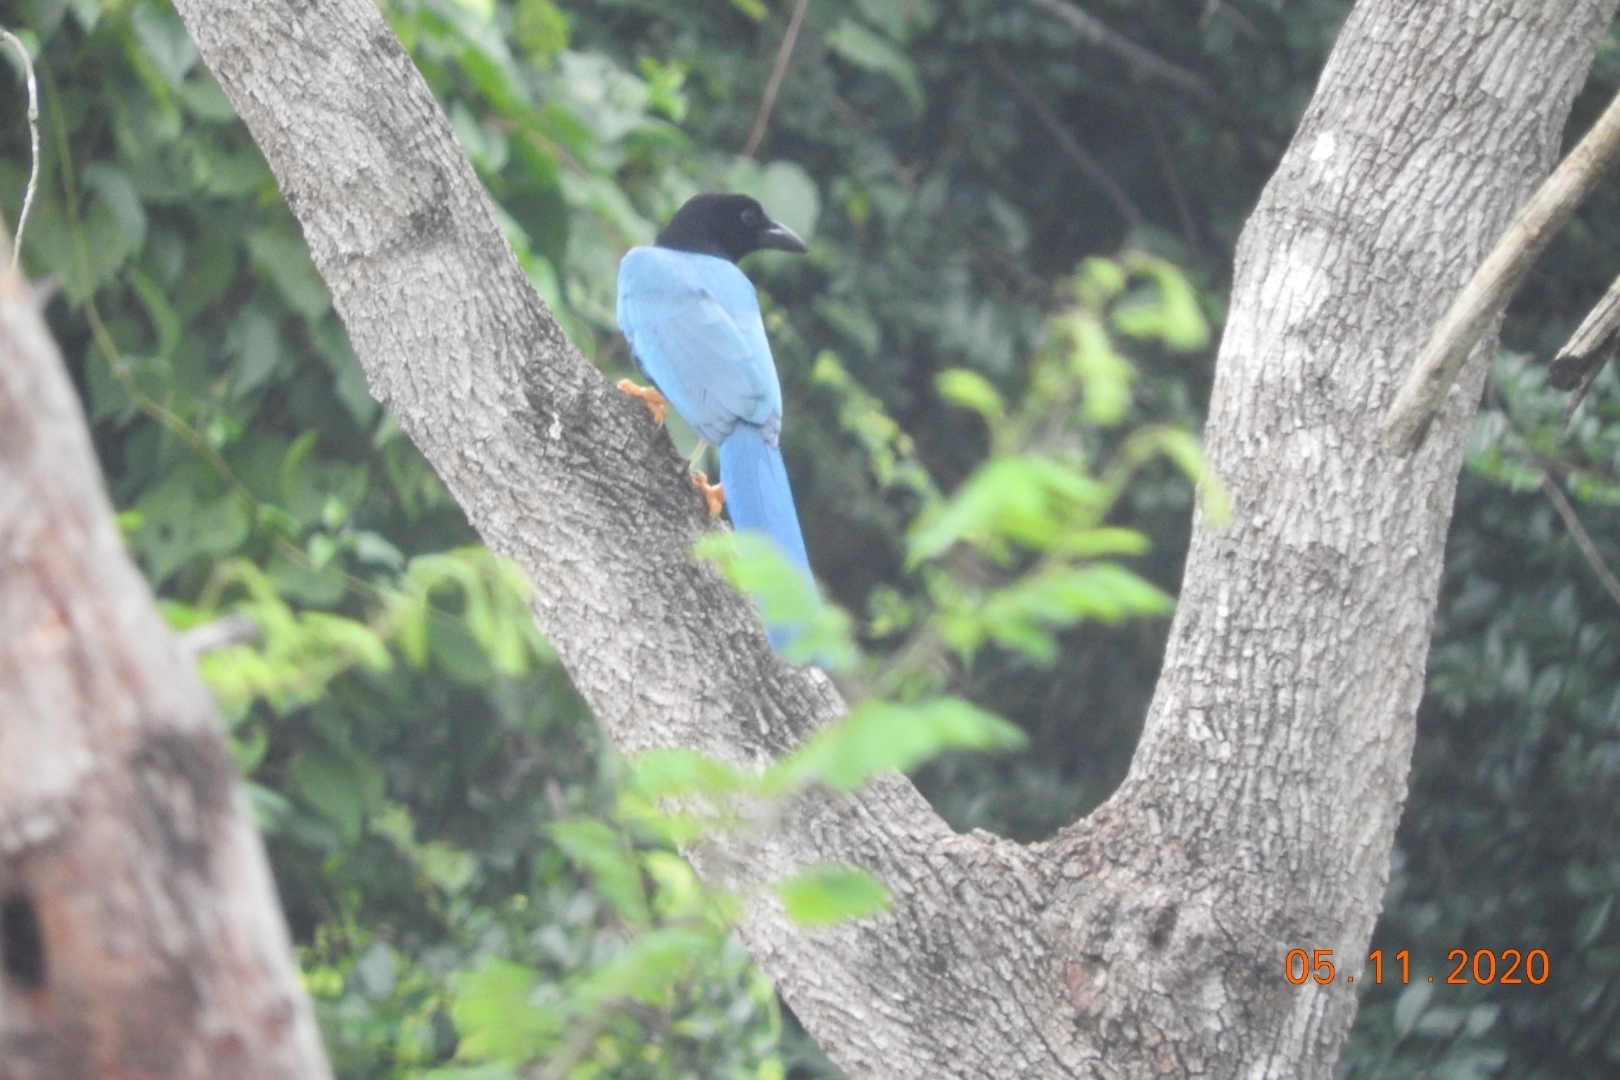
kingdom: Animalia
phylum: Chordata
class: Aves
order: Passeriformes
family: Corvidae
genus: Cyanocorax
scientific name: Cyanocorax yucatanicus
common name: Yucatan jay
